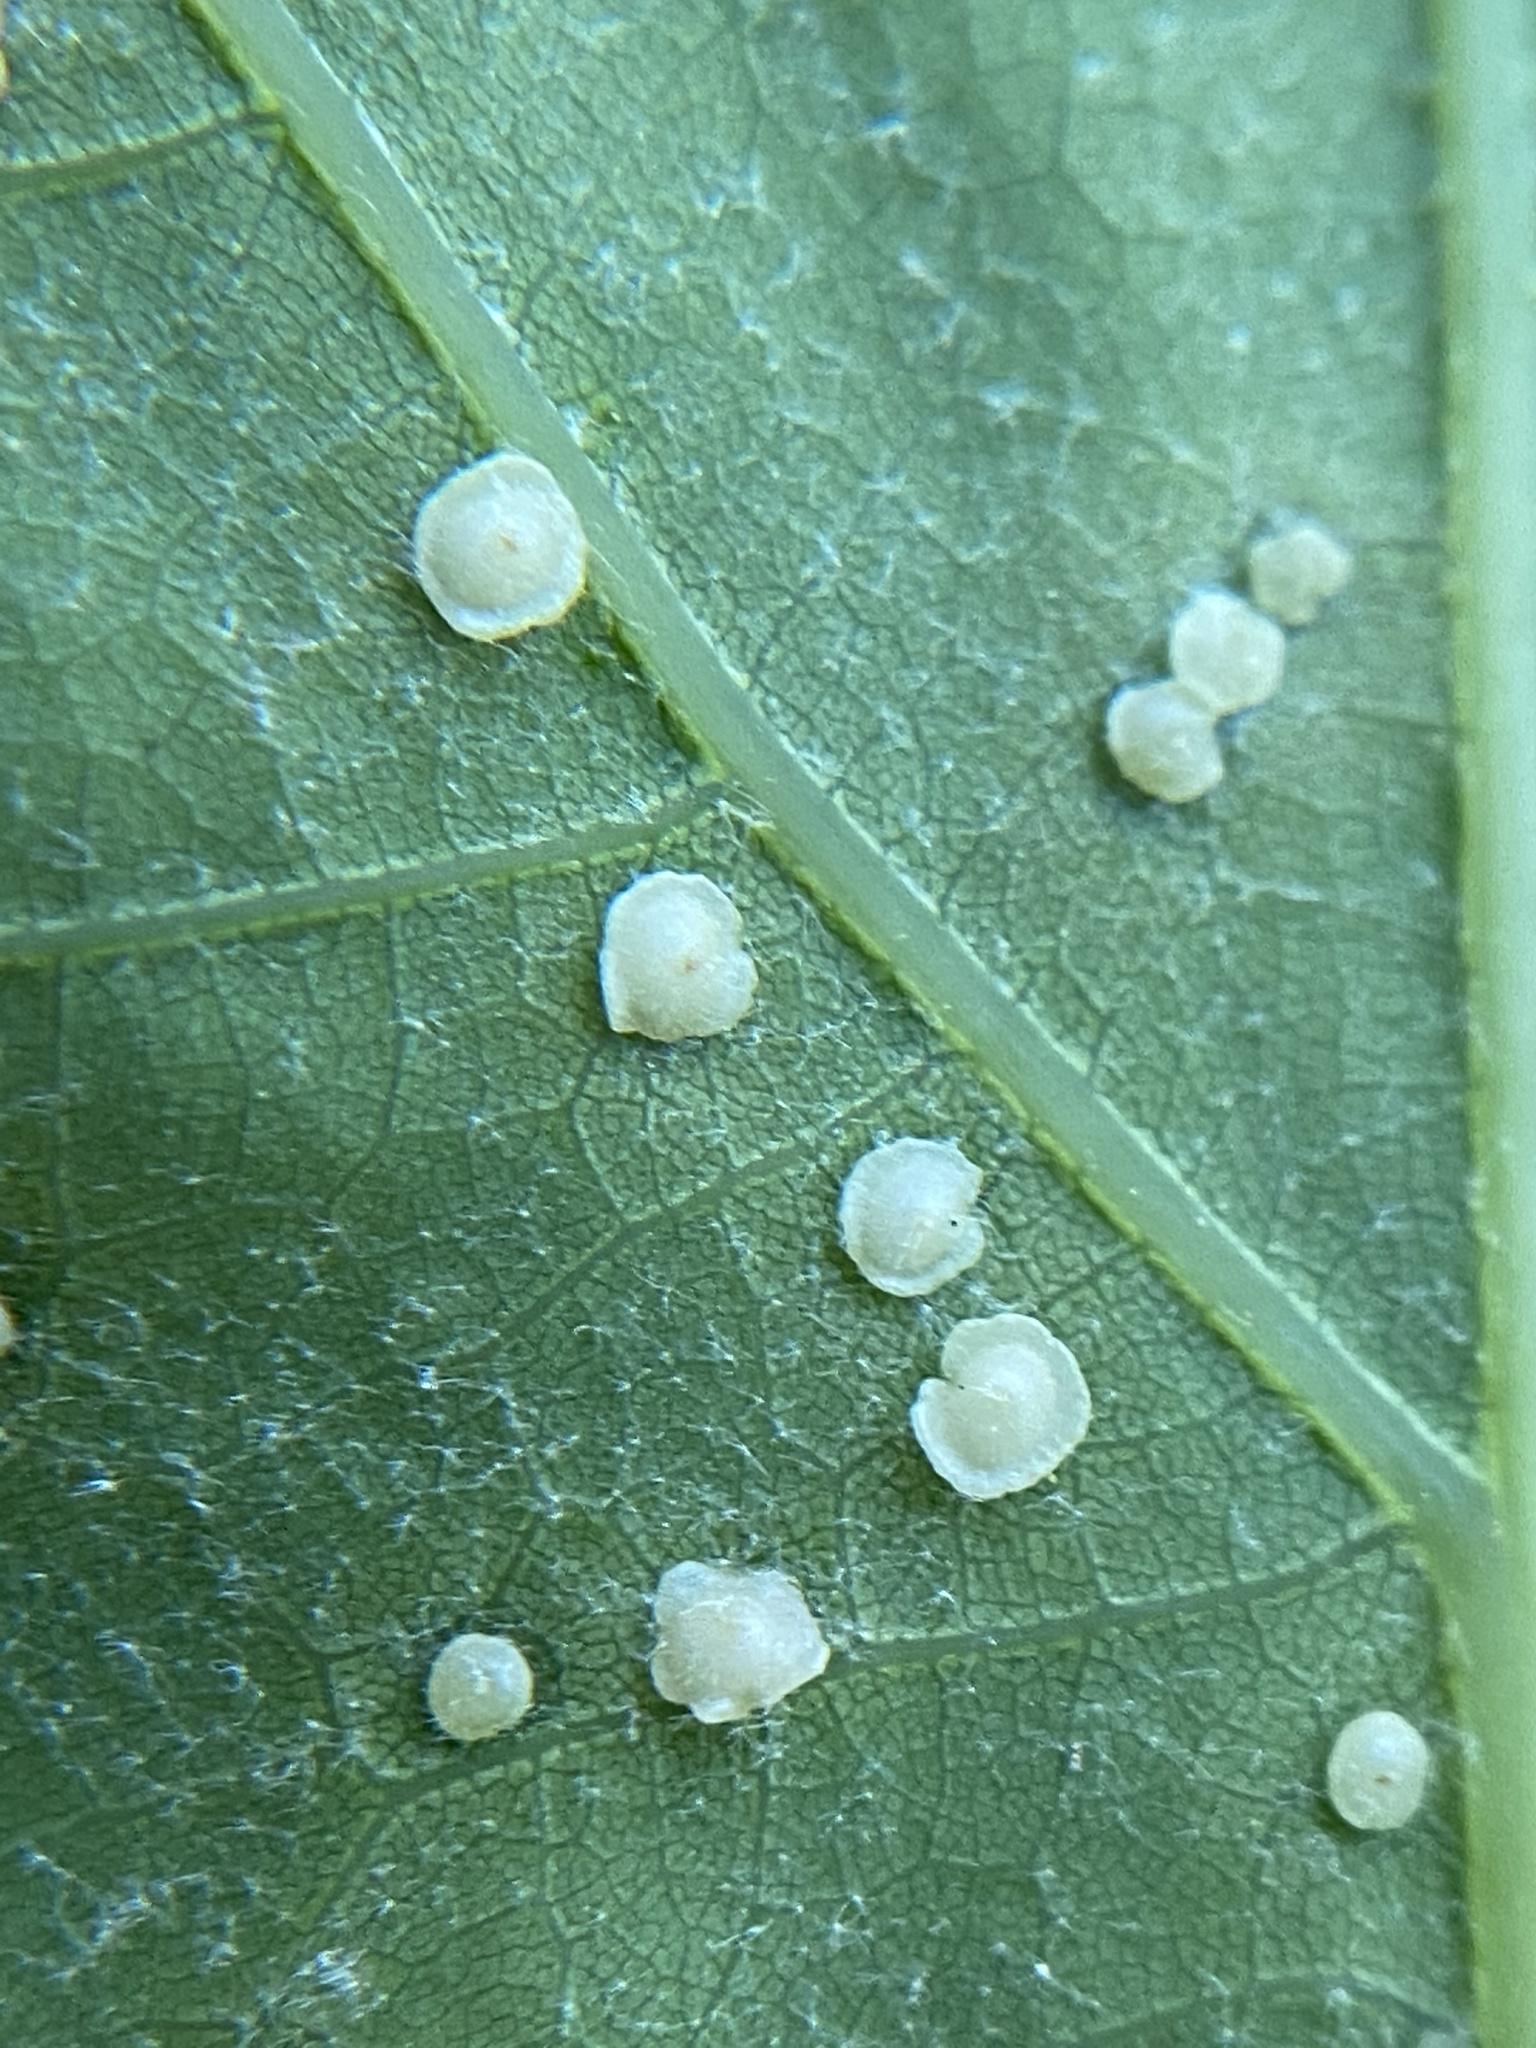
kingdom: Animalia
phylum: Arthropoda
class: Insecta
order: Hymenoptera
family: Cynipidae
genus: Neuroterus
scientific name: Neuroterus
